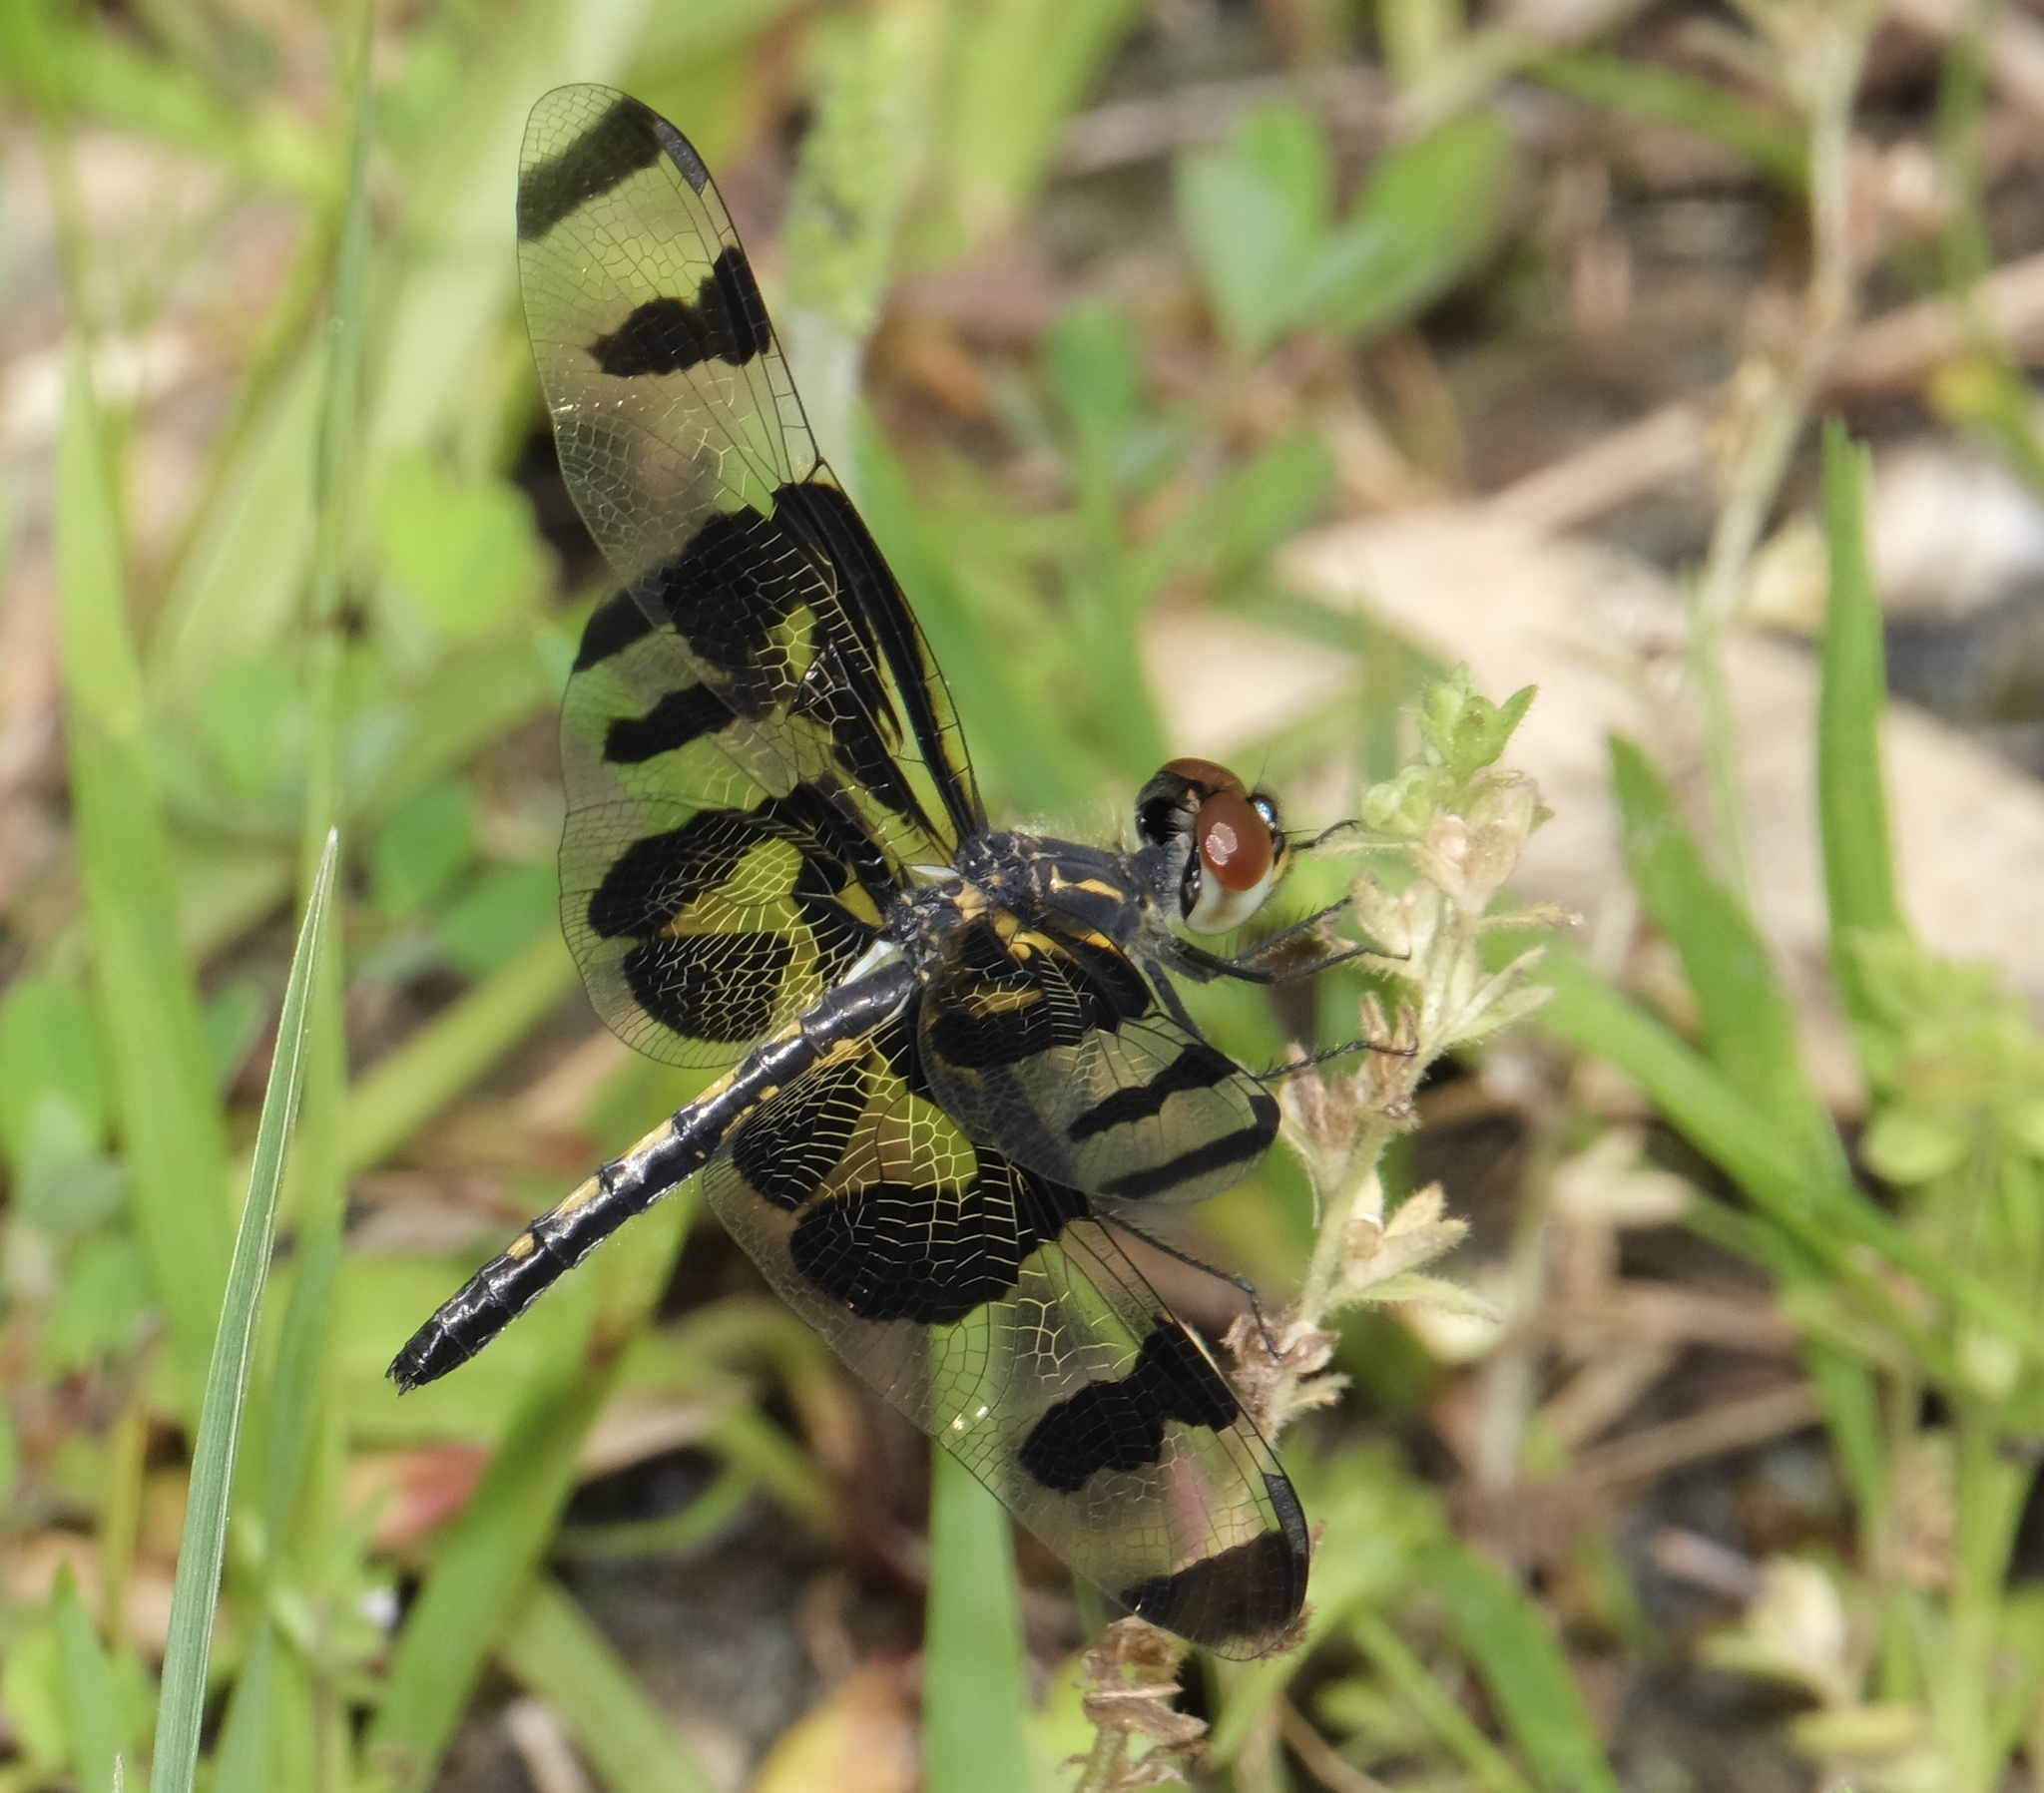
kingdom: Animalia
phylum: Arthropoda
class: Insecta
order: Odonata
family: Libellulidae
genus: Celithemis
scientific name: Celithemis fasciata
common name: Banded pennant
